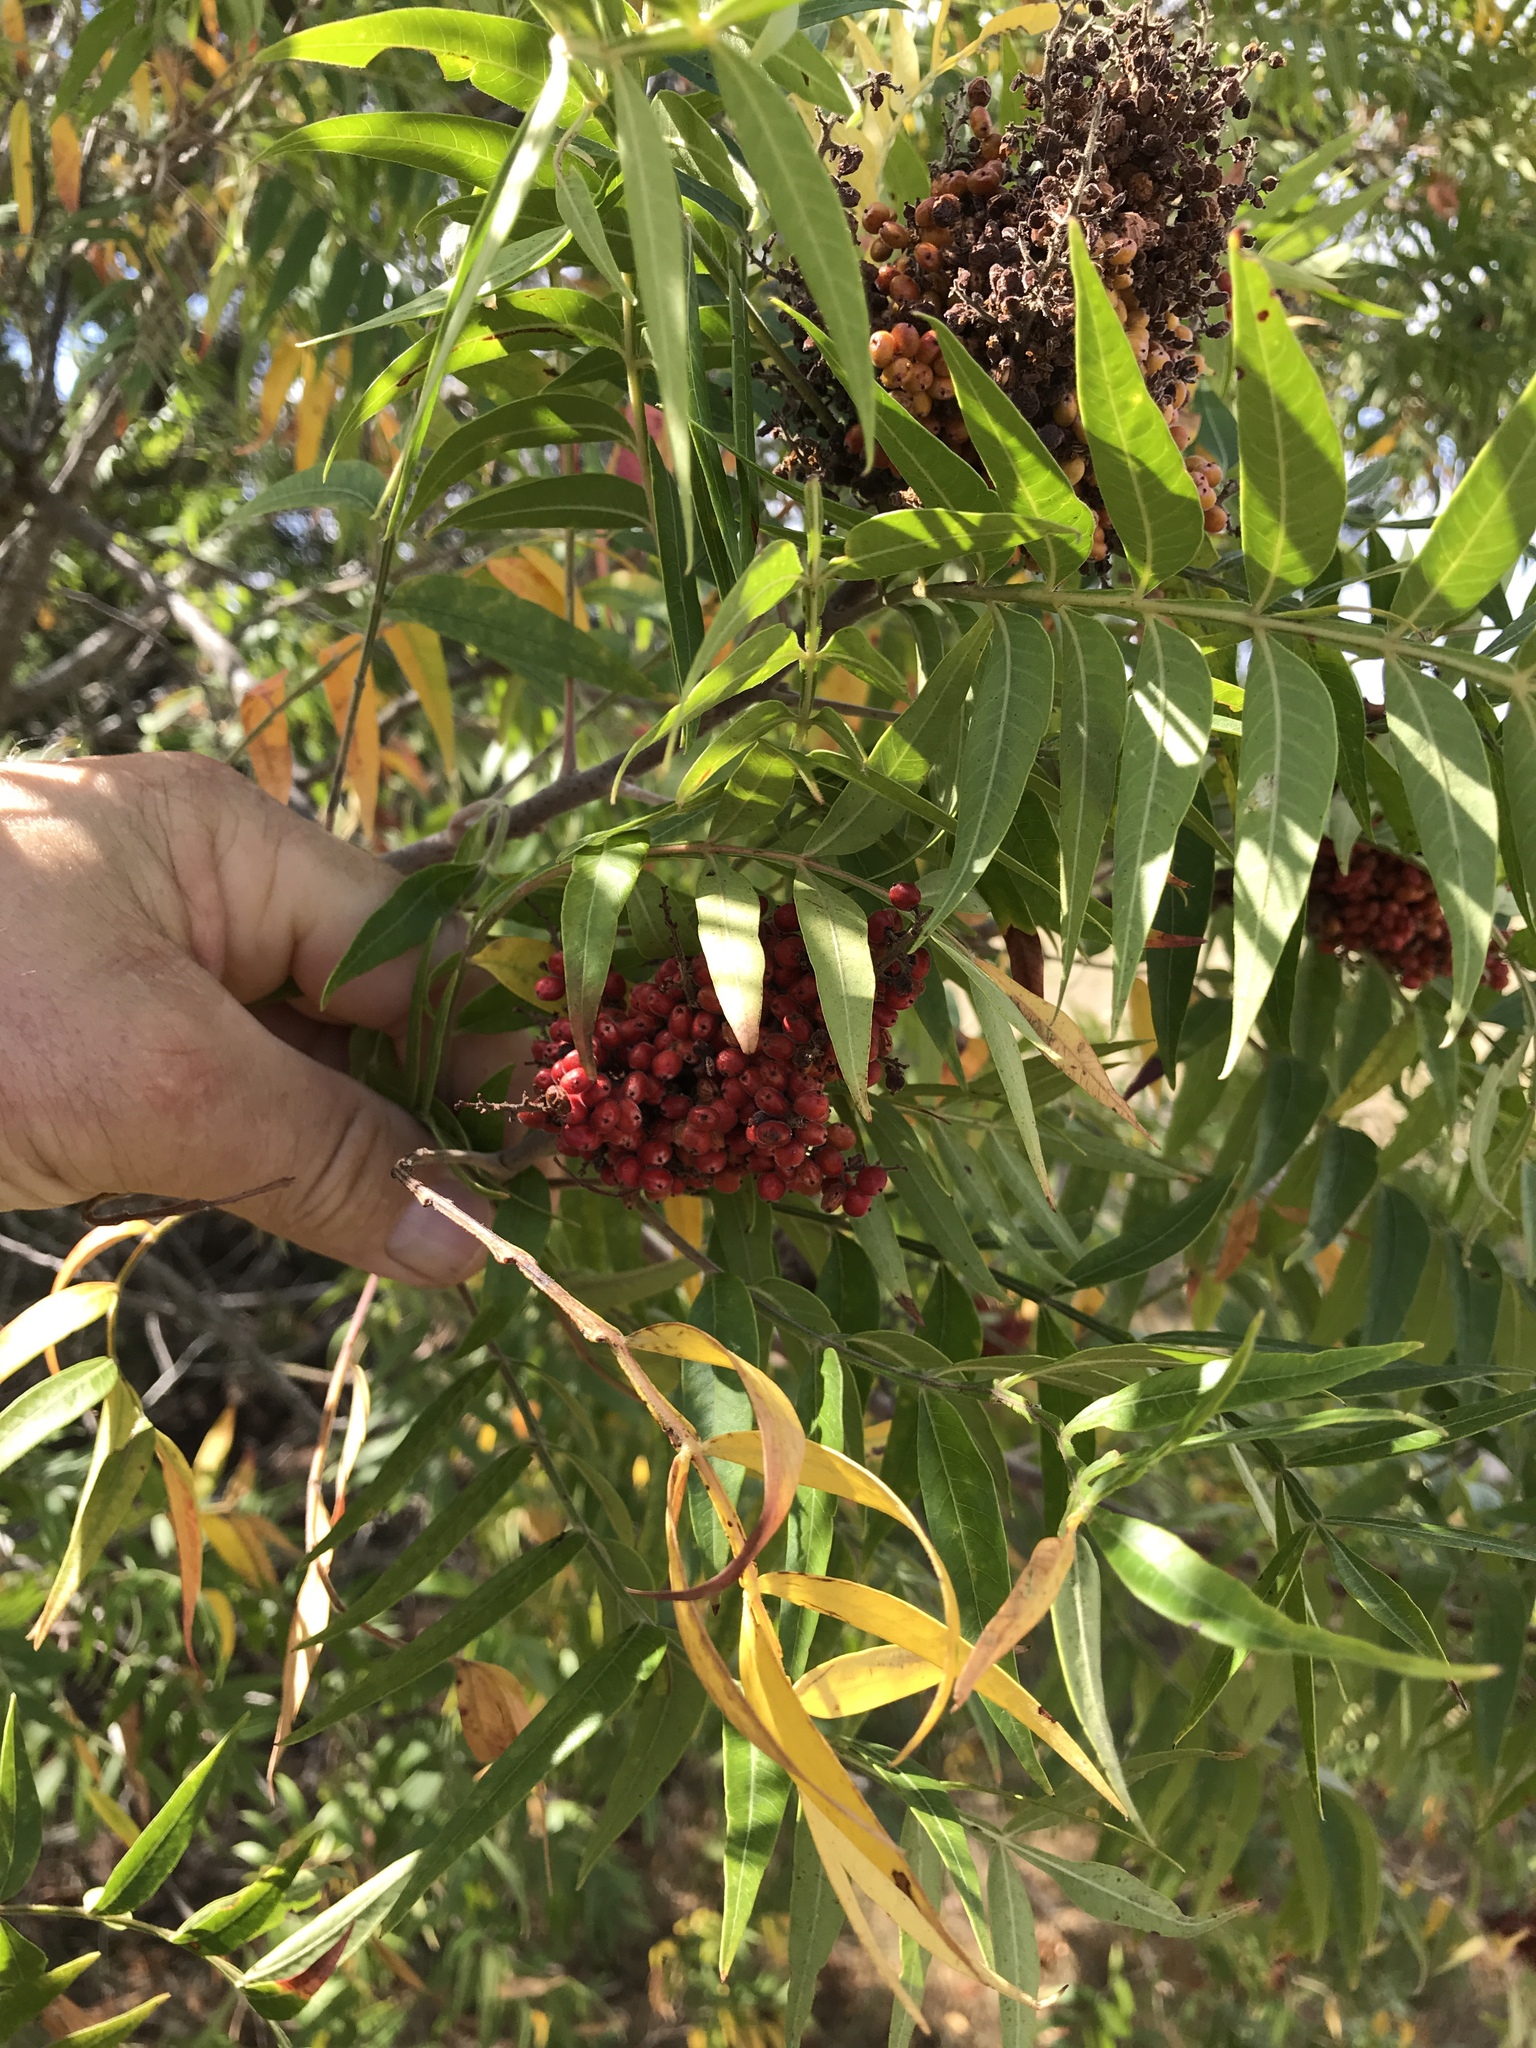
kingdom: Plantae
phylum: Tracheophyta
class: Magnoliopsida
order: Sapindales
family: Anacardiaceae
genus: Rhus
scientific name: Rhus lanceolata
